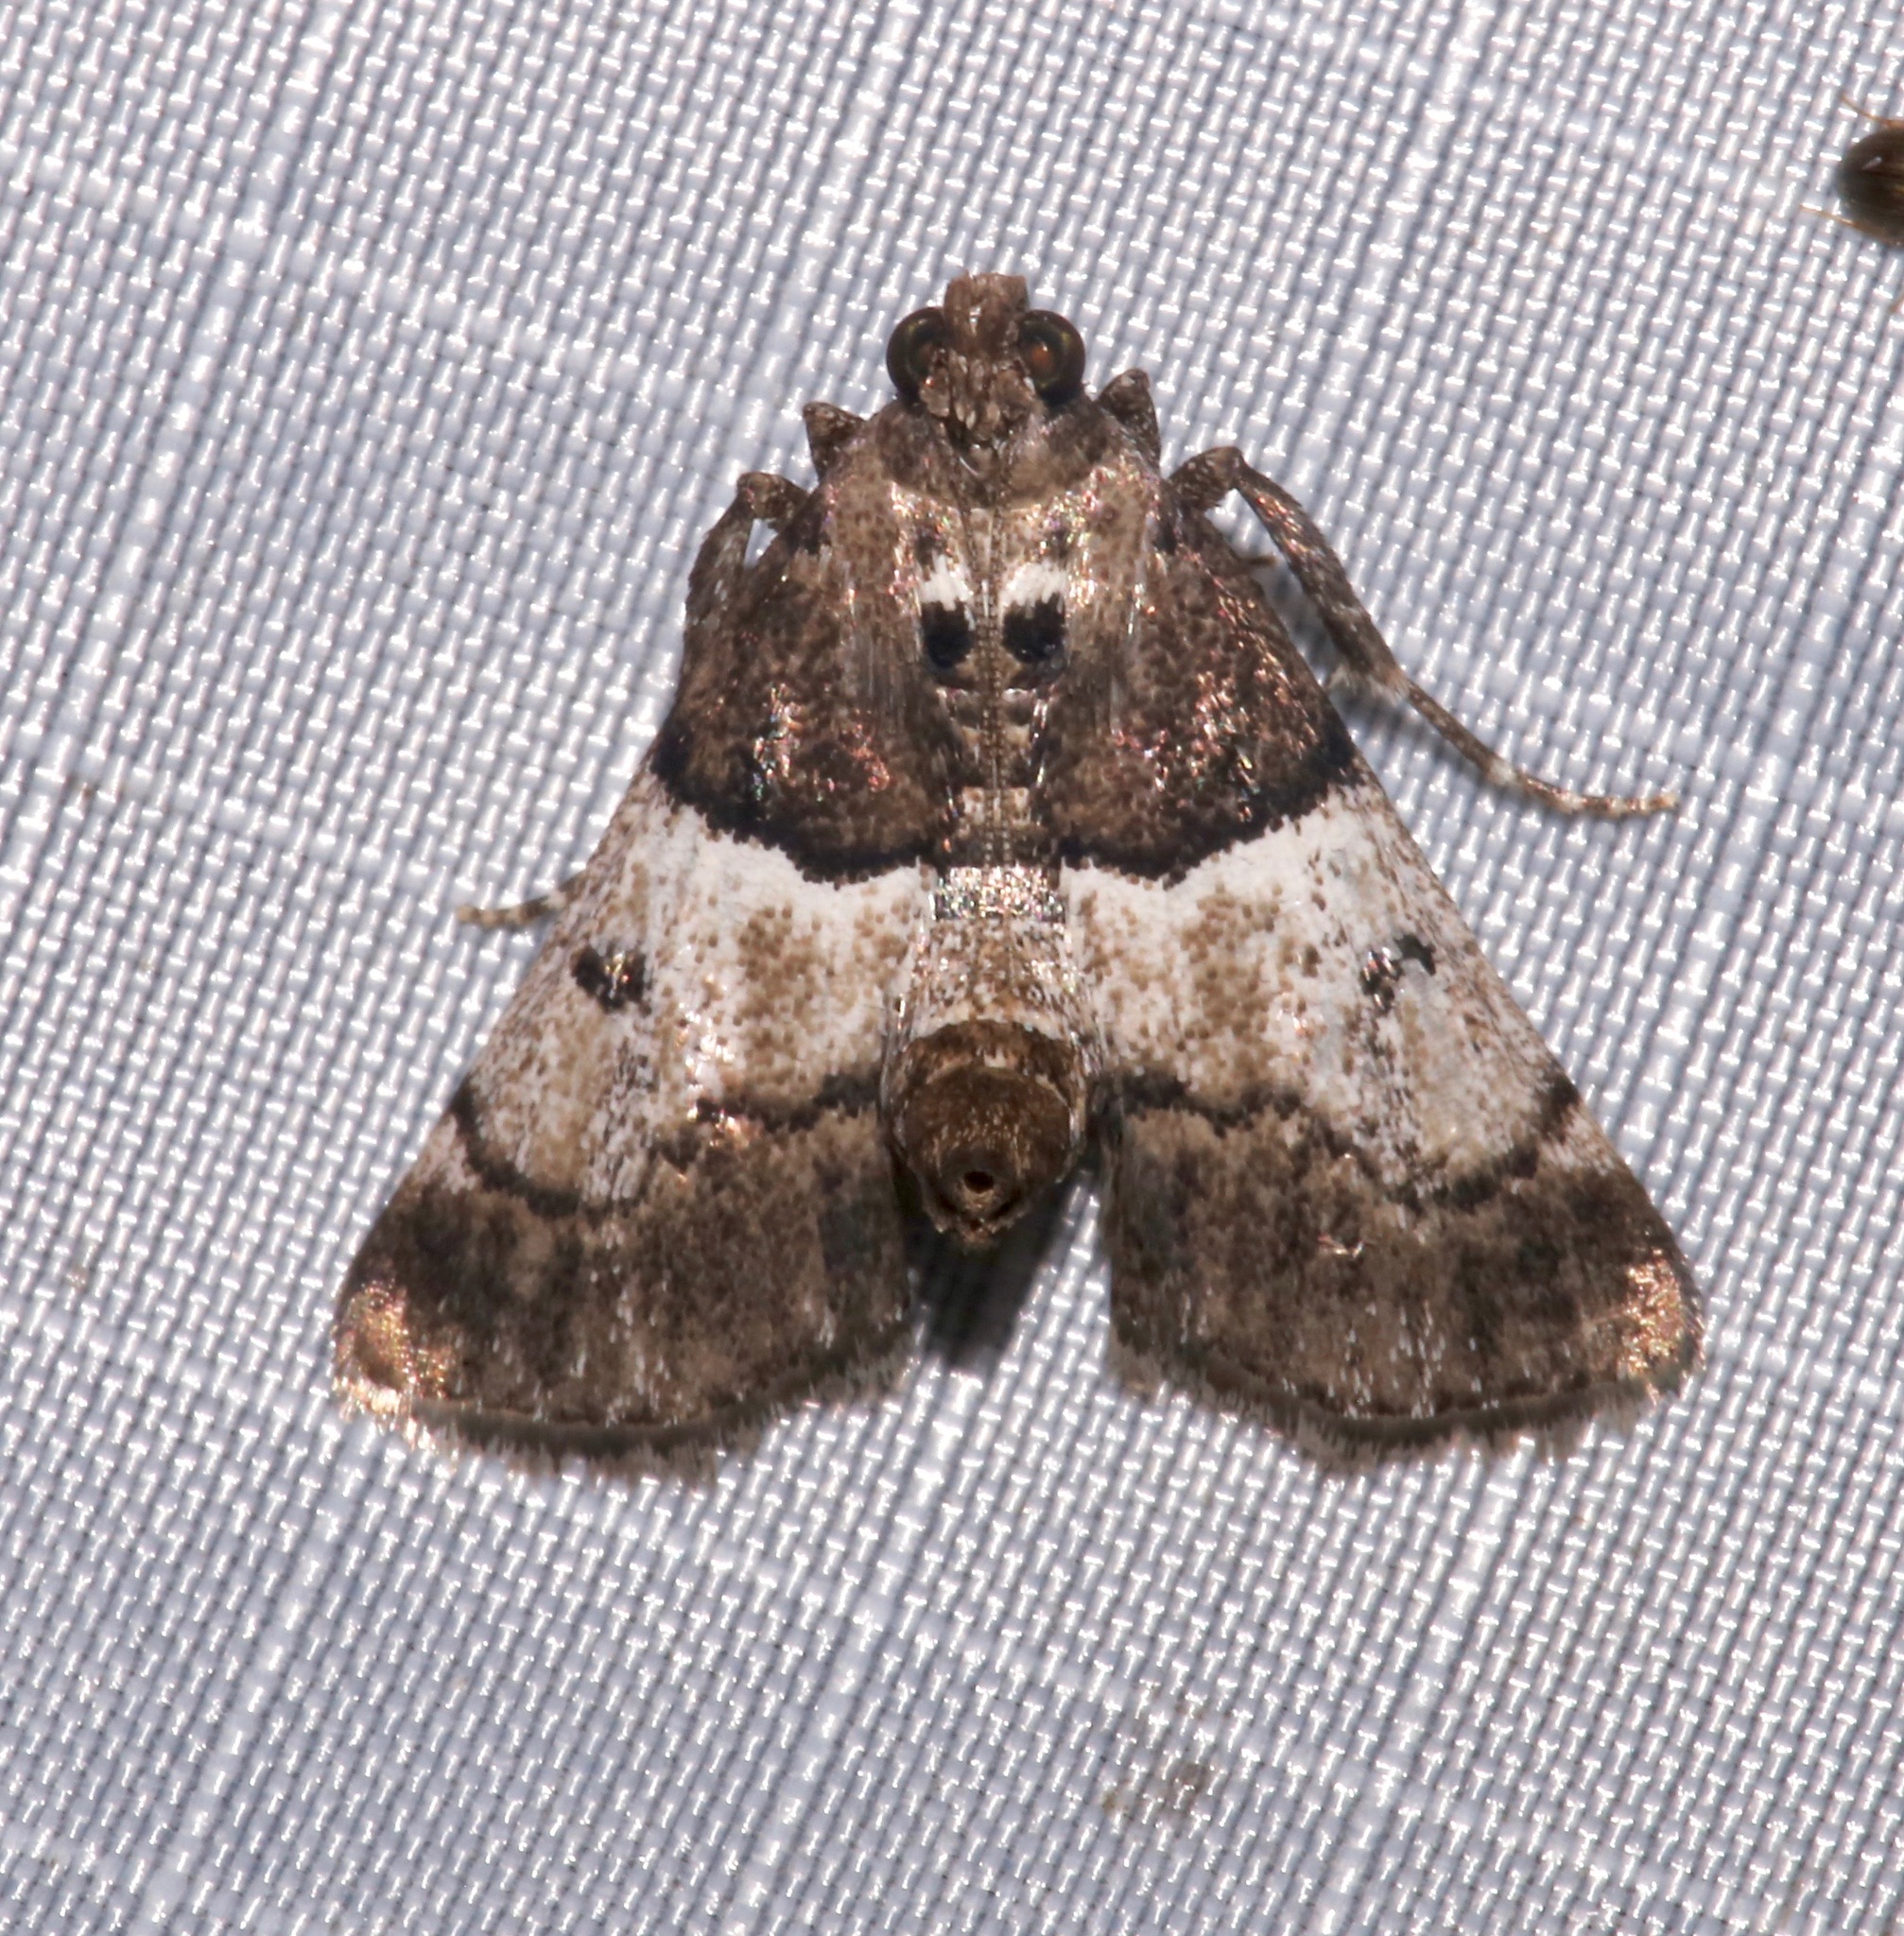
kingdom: Animalia
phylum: Arthropoda
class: Insecta
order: Lepidoptera
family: Pyralidae
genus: Macalla
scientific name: Macalla zelleri
